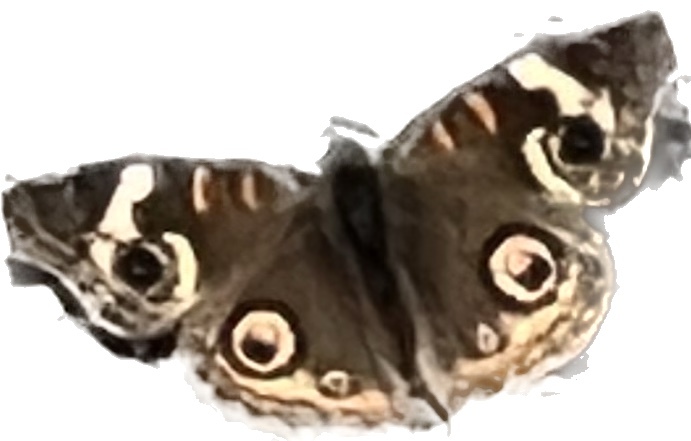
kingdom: Animalia
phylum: Arthropoda
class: Insecta
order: Lepidoptera
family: Nymphalidae
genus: Junonia
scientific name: Junonia grisea
